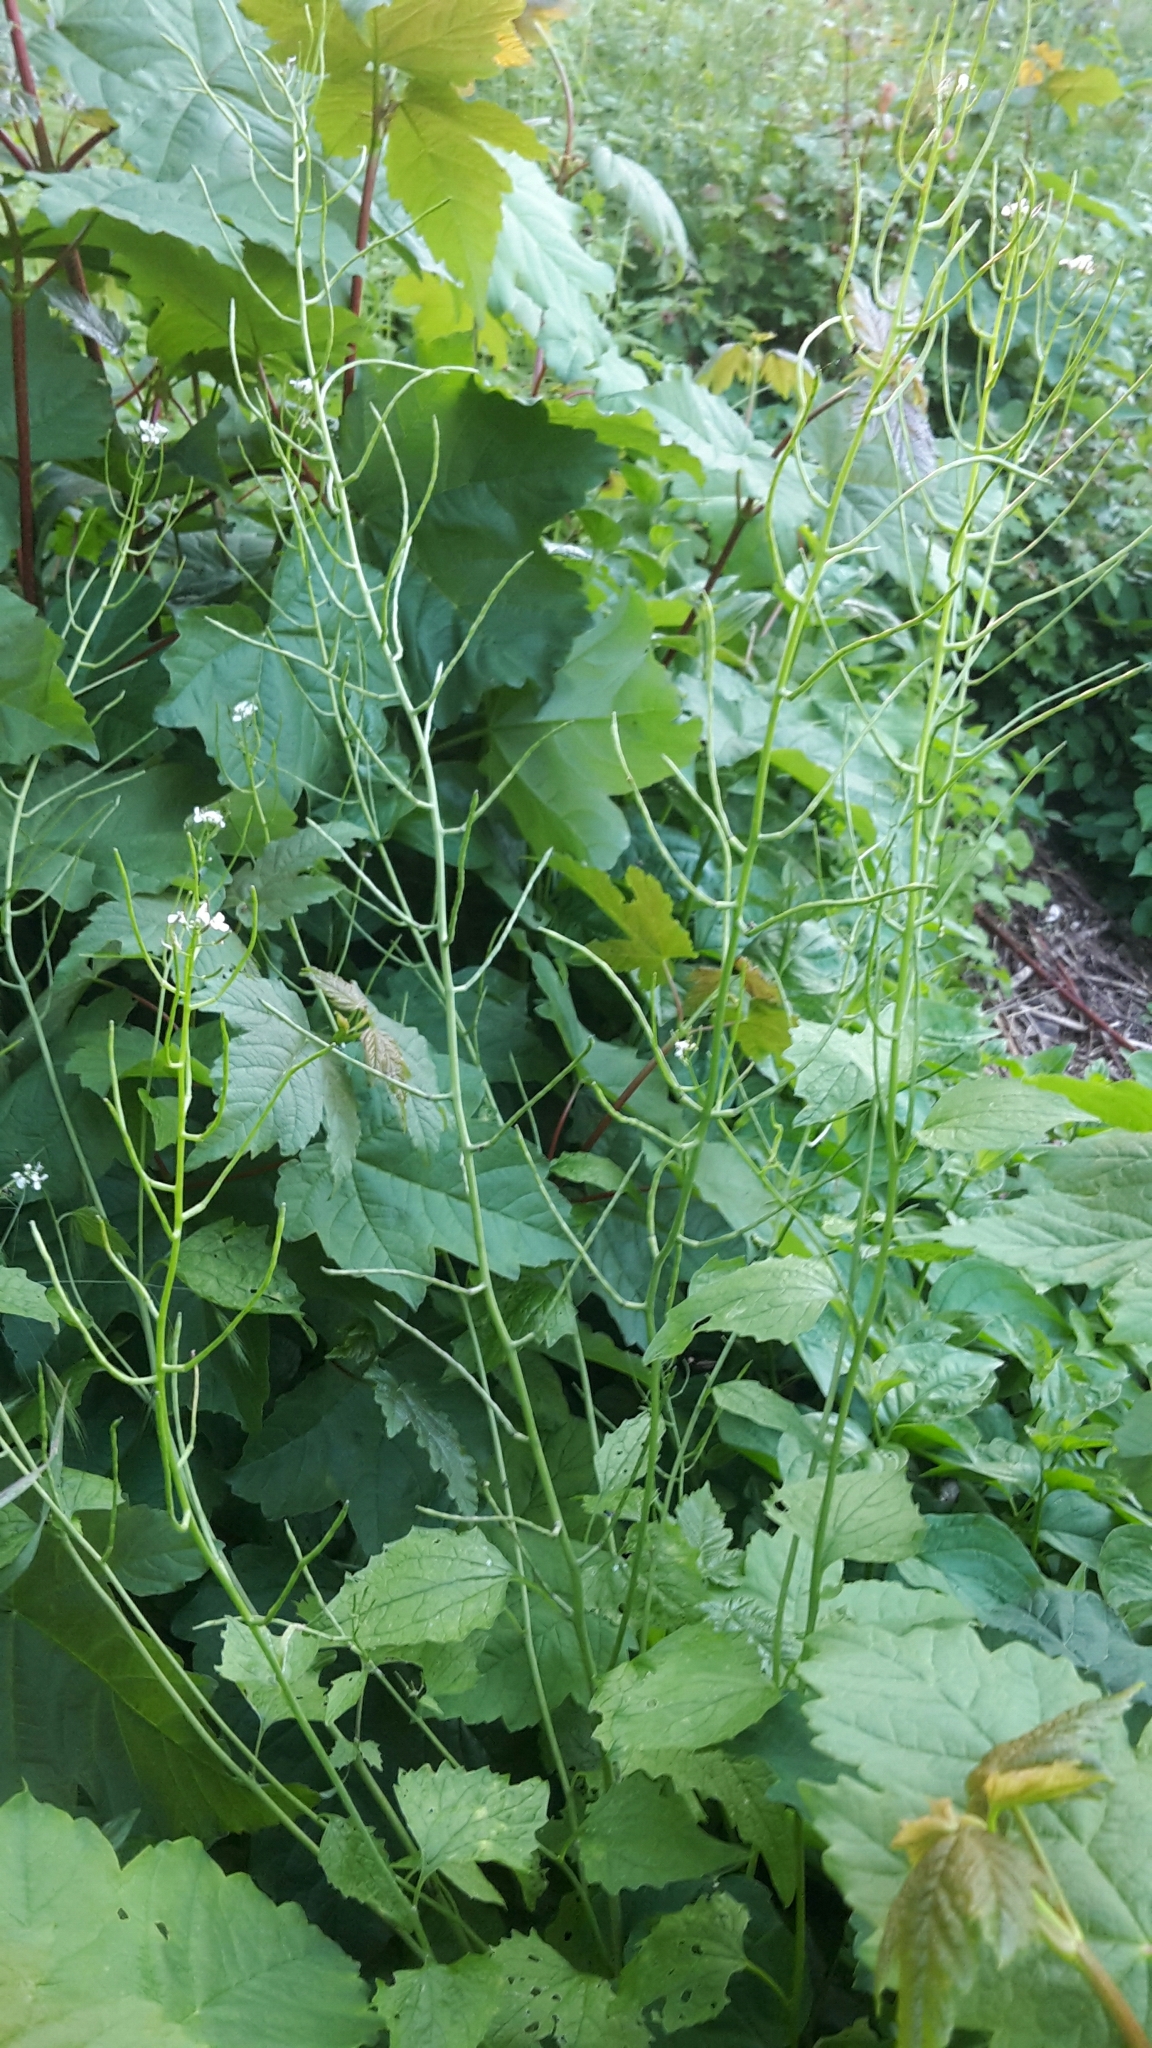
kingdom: Plantae
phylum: Tracheophyta
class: Magnoliopsida
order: Brassicales
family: Brassicaceae
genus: Alliaria
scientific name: Alliaria petiolata
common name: Garlic mustard
